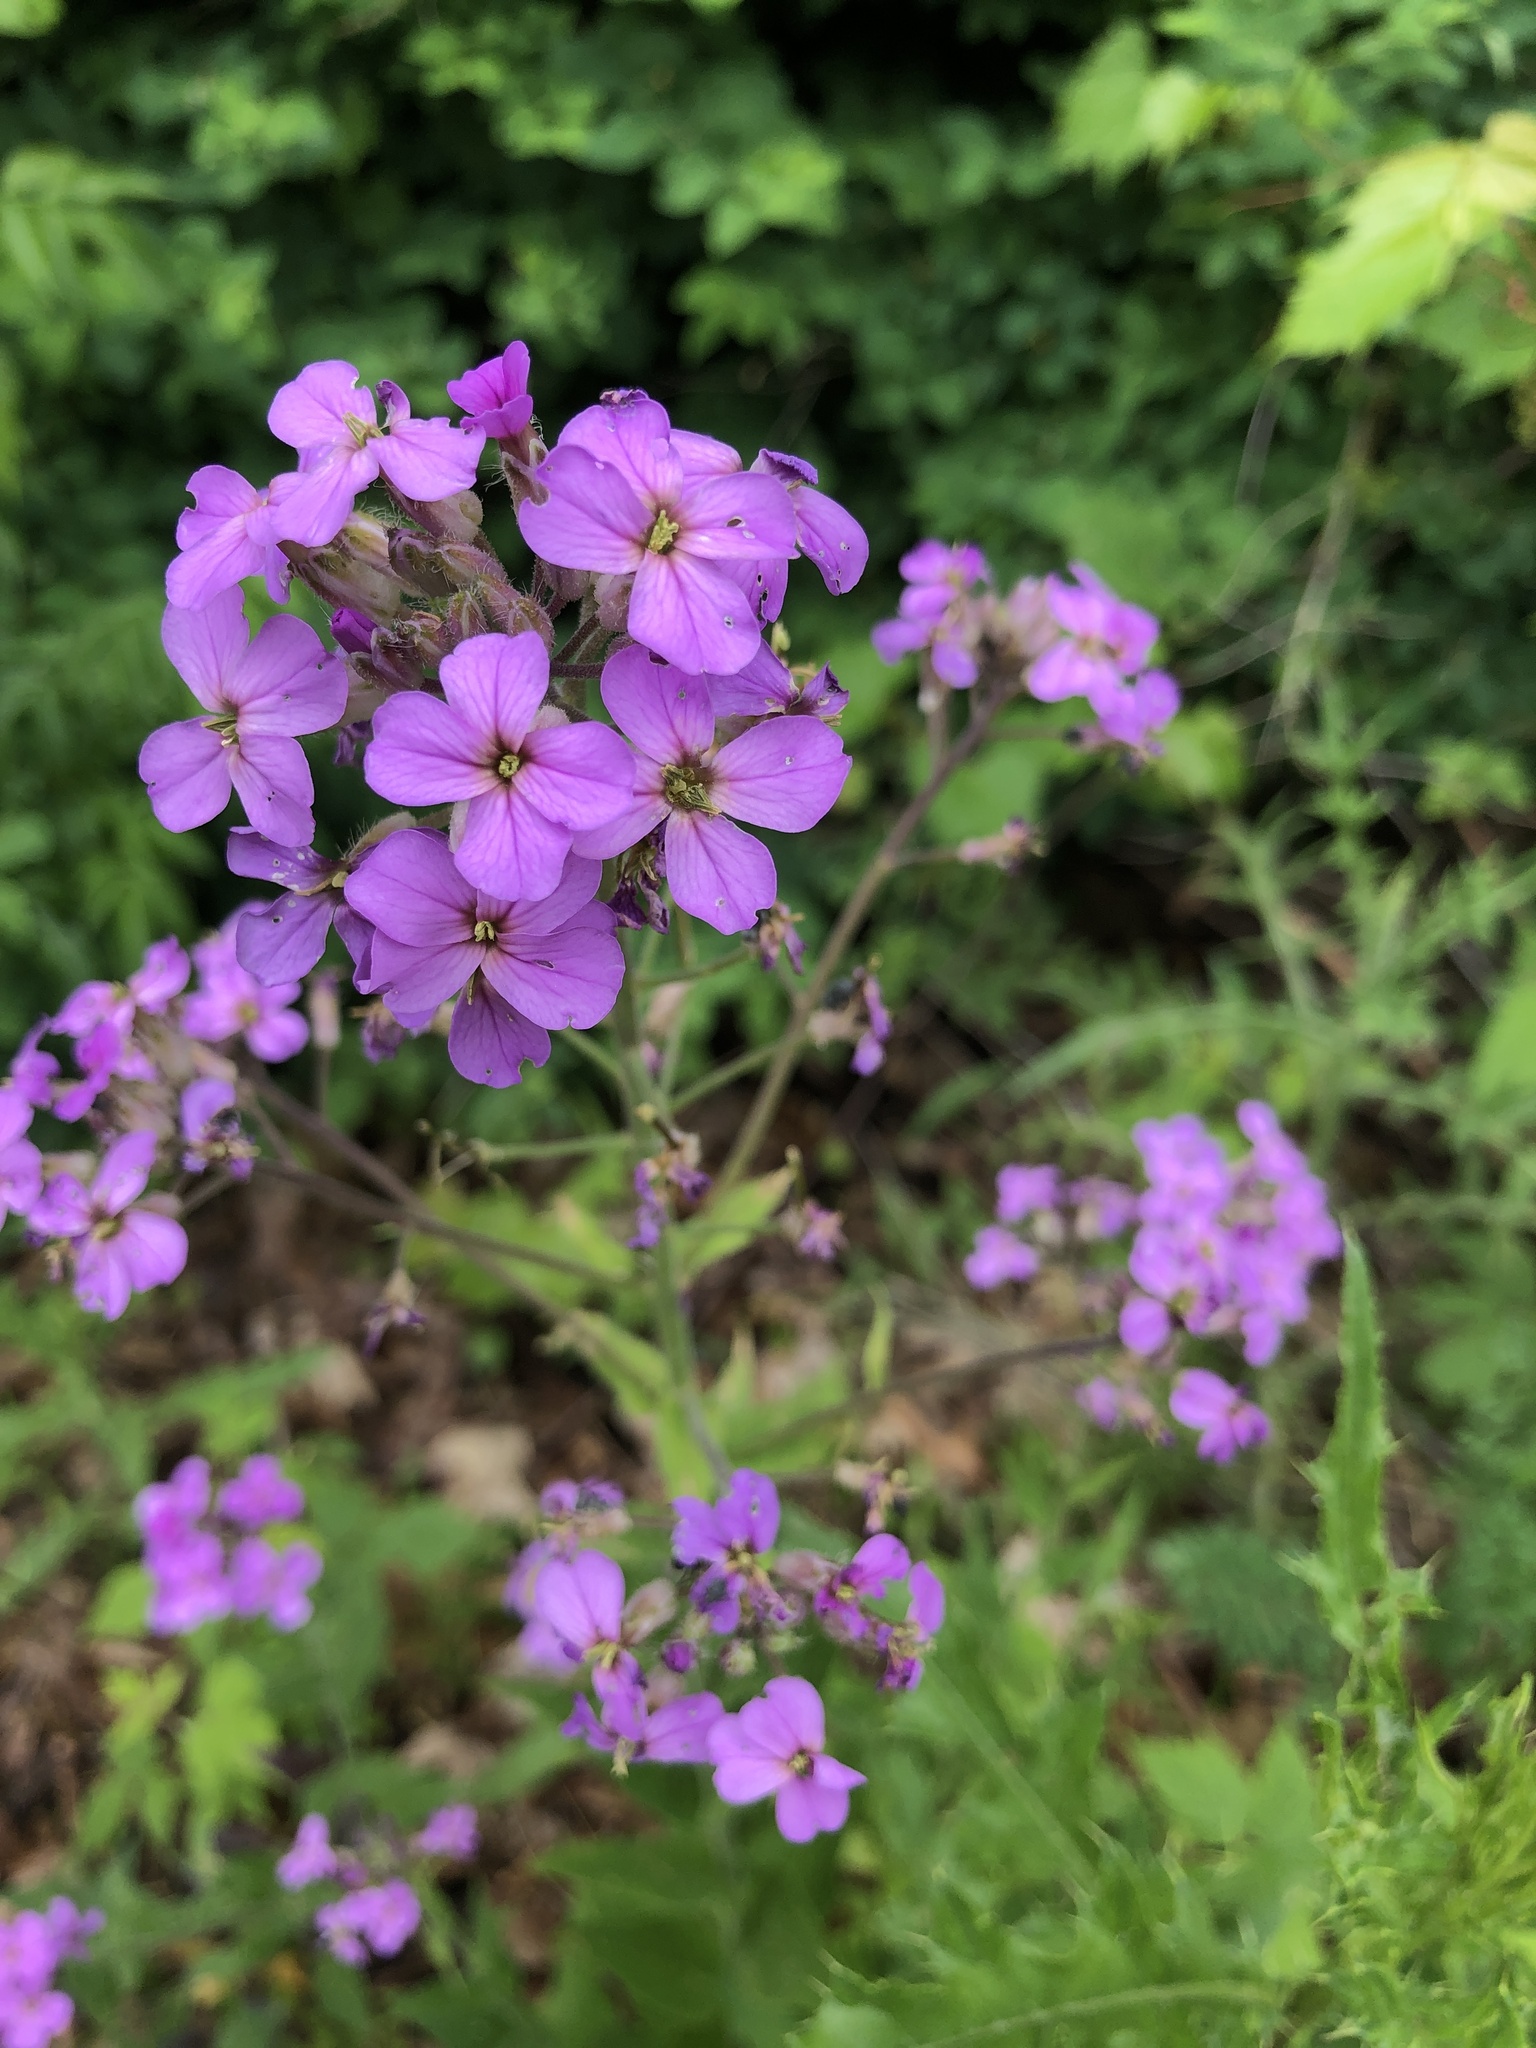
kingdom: Plantae
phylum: Tracheophyta
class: Magnoliopsida
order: Brassicales
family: Brassicaceae
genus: Hesperis
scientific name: Hesperis matronalis
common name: Dame's-violet
